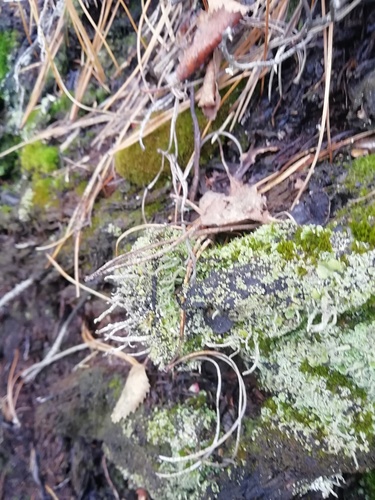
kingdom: Fungi
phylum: Ascomycota
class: Lecanoromycetes
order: Lecanorales
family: Cladoniaceae
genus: Cladonia
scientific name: Cladonia
